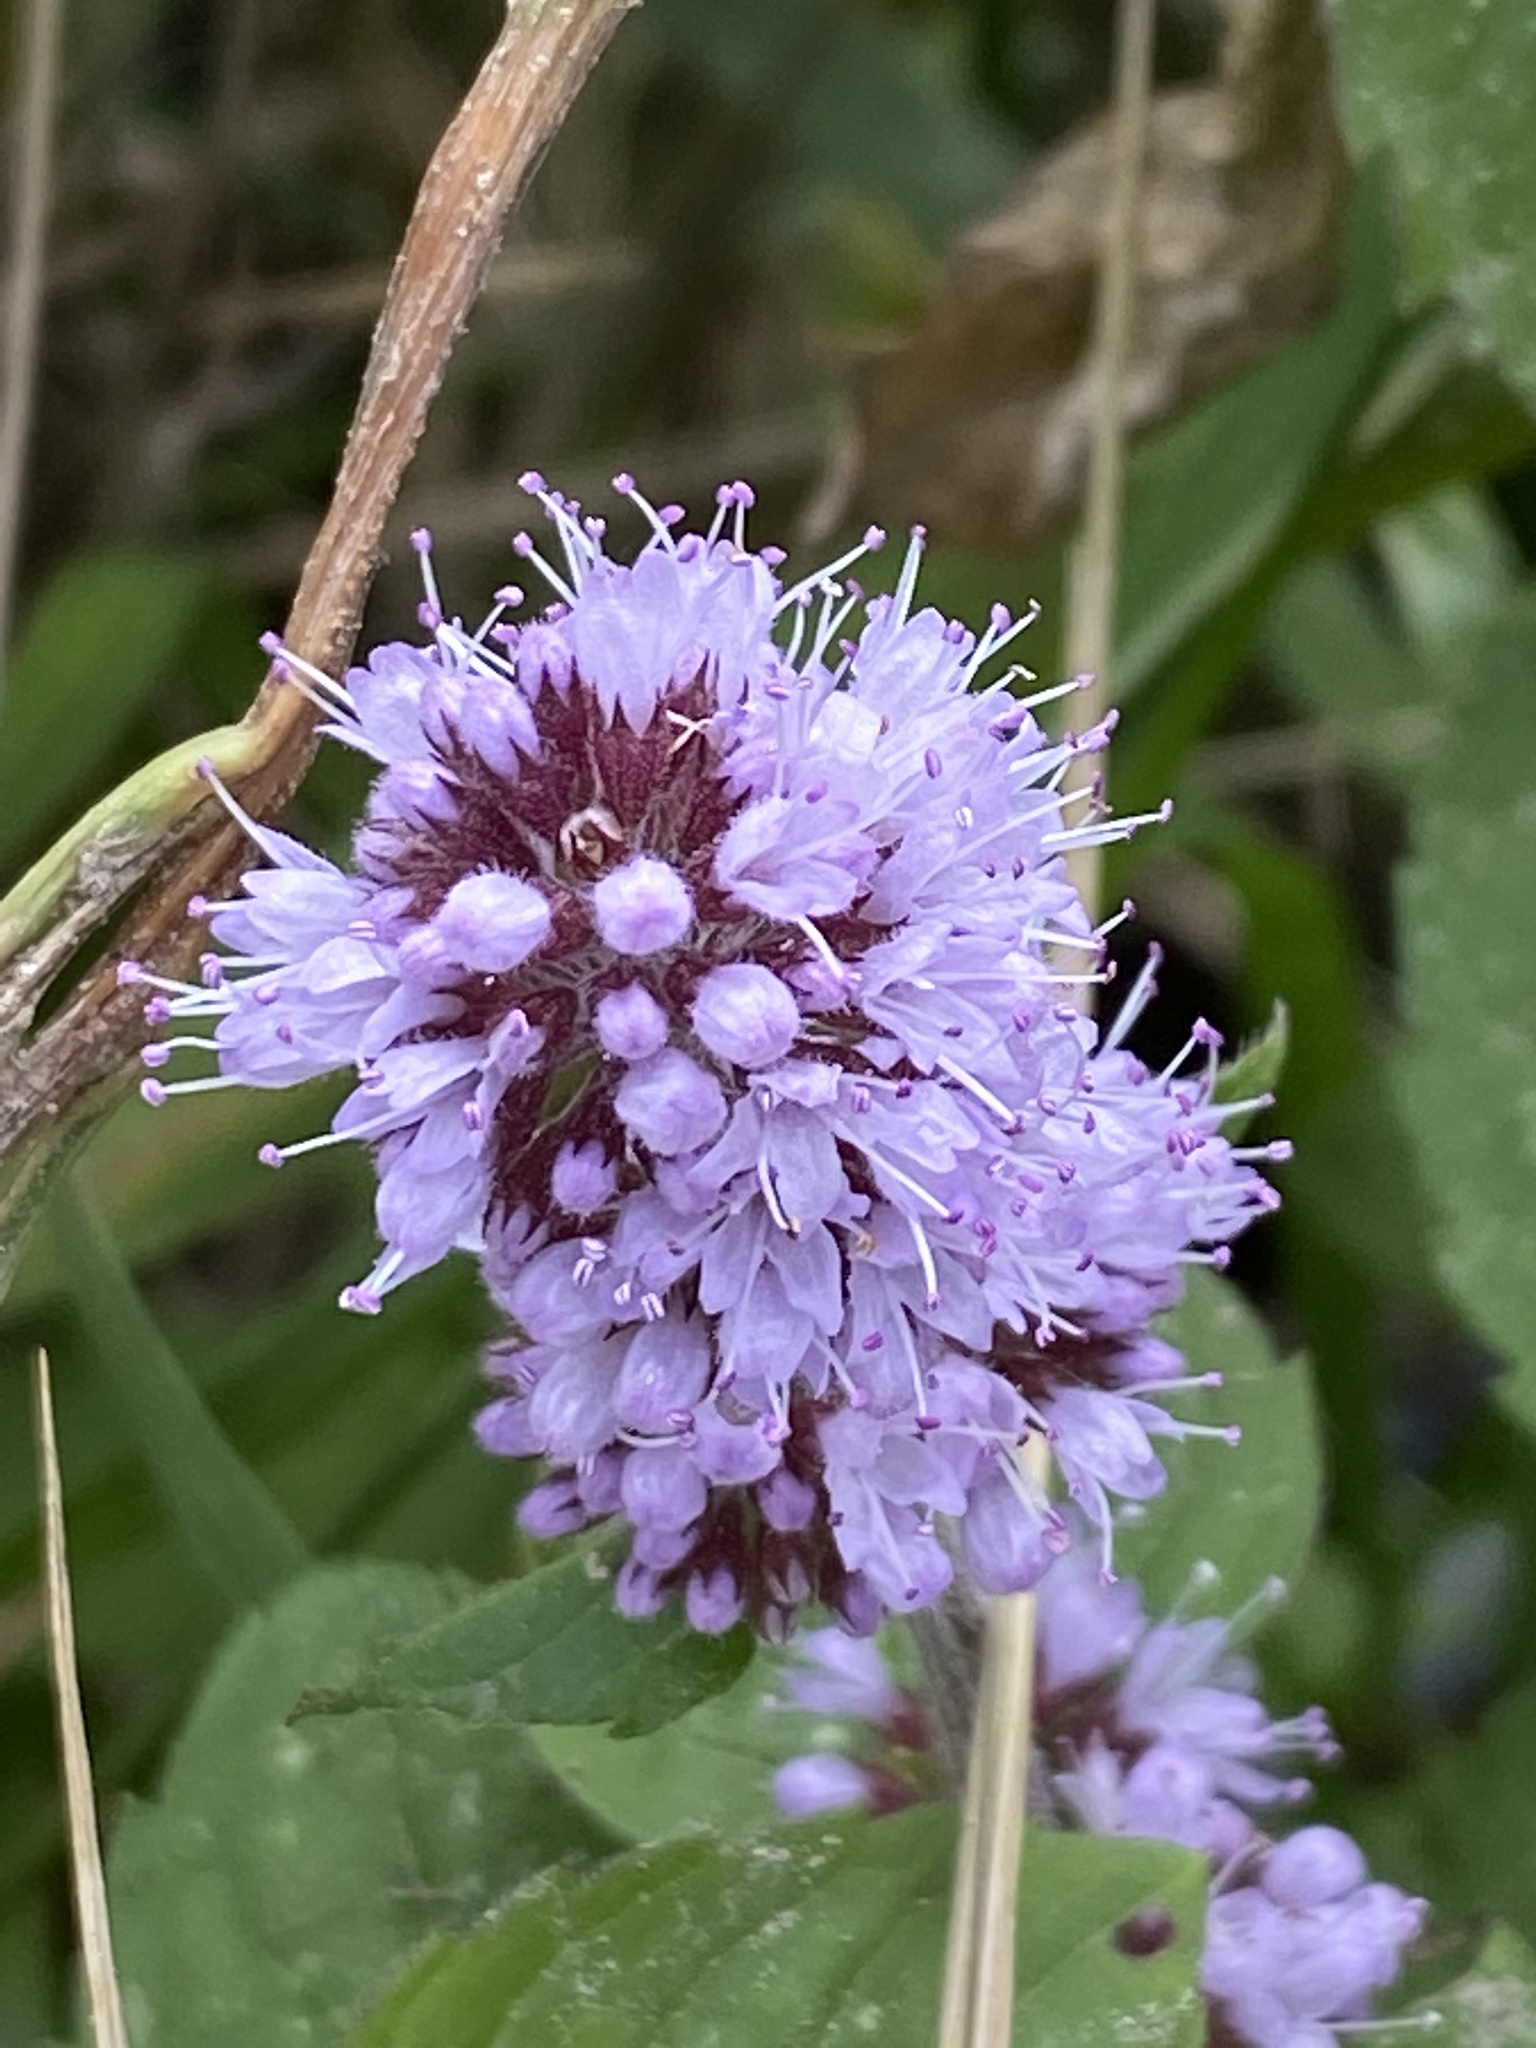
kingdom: Plantae
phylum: Tracheophyta
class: Magnoliopsida
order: Lamiales
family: Lamiaceae
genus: Mentha
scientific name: Mentha aquatica
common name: Water mint
